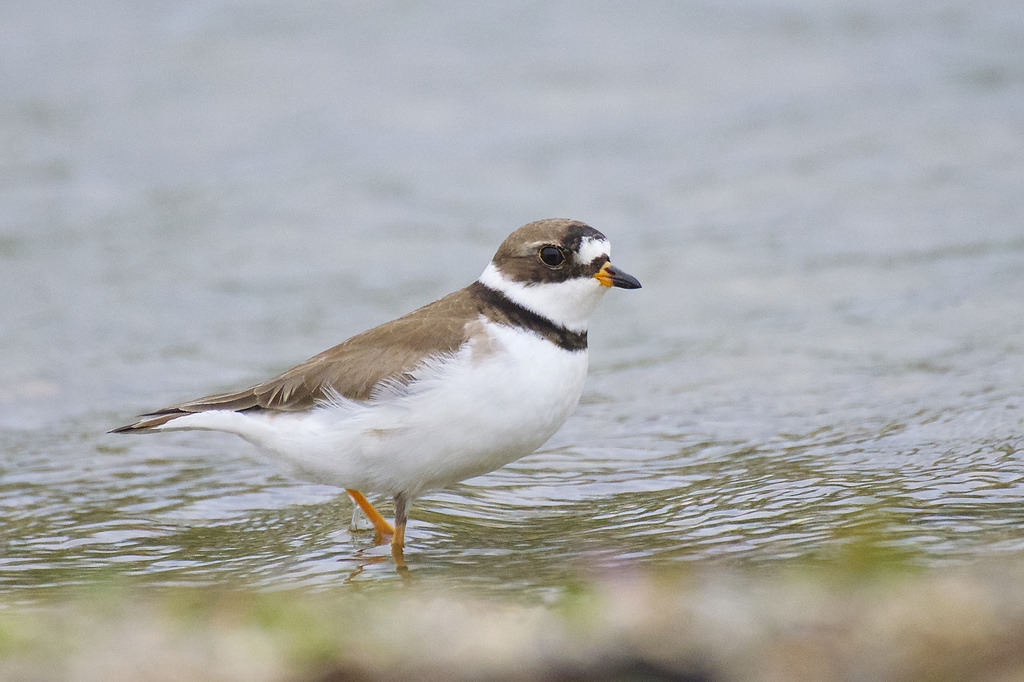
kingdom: Animalia
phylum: Chordata
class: Aves
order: Charadriiformes
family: Charadriidae
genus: Charadrius
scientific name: Charadrius semipalmatus
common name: Semipalmated plover
